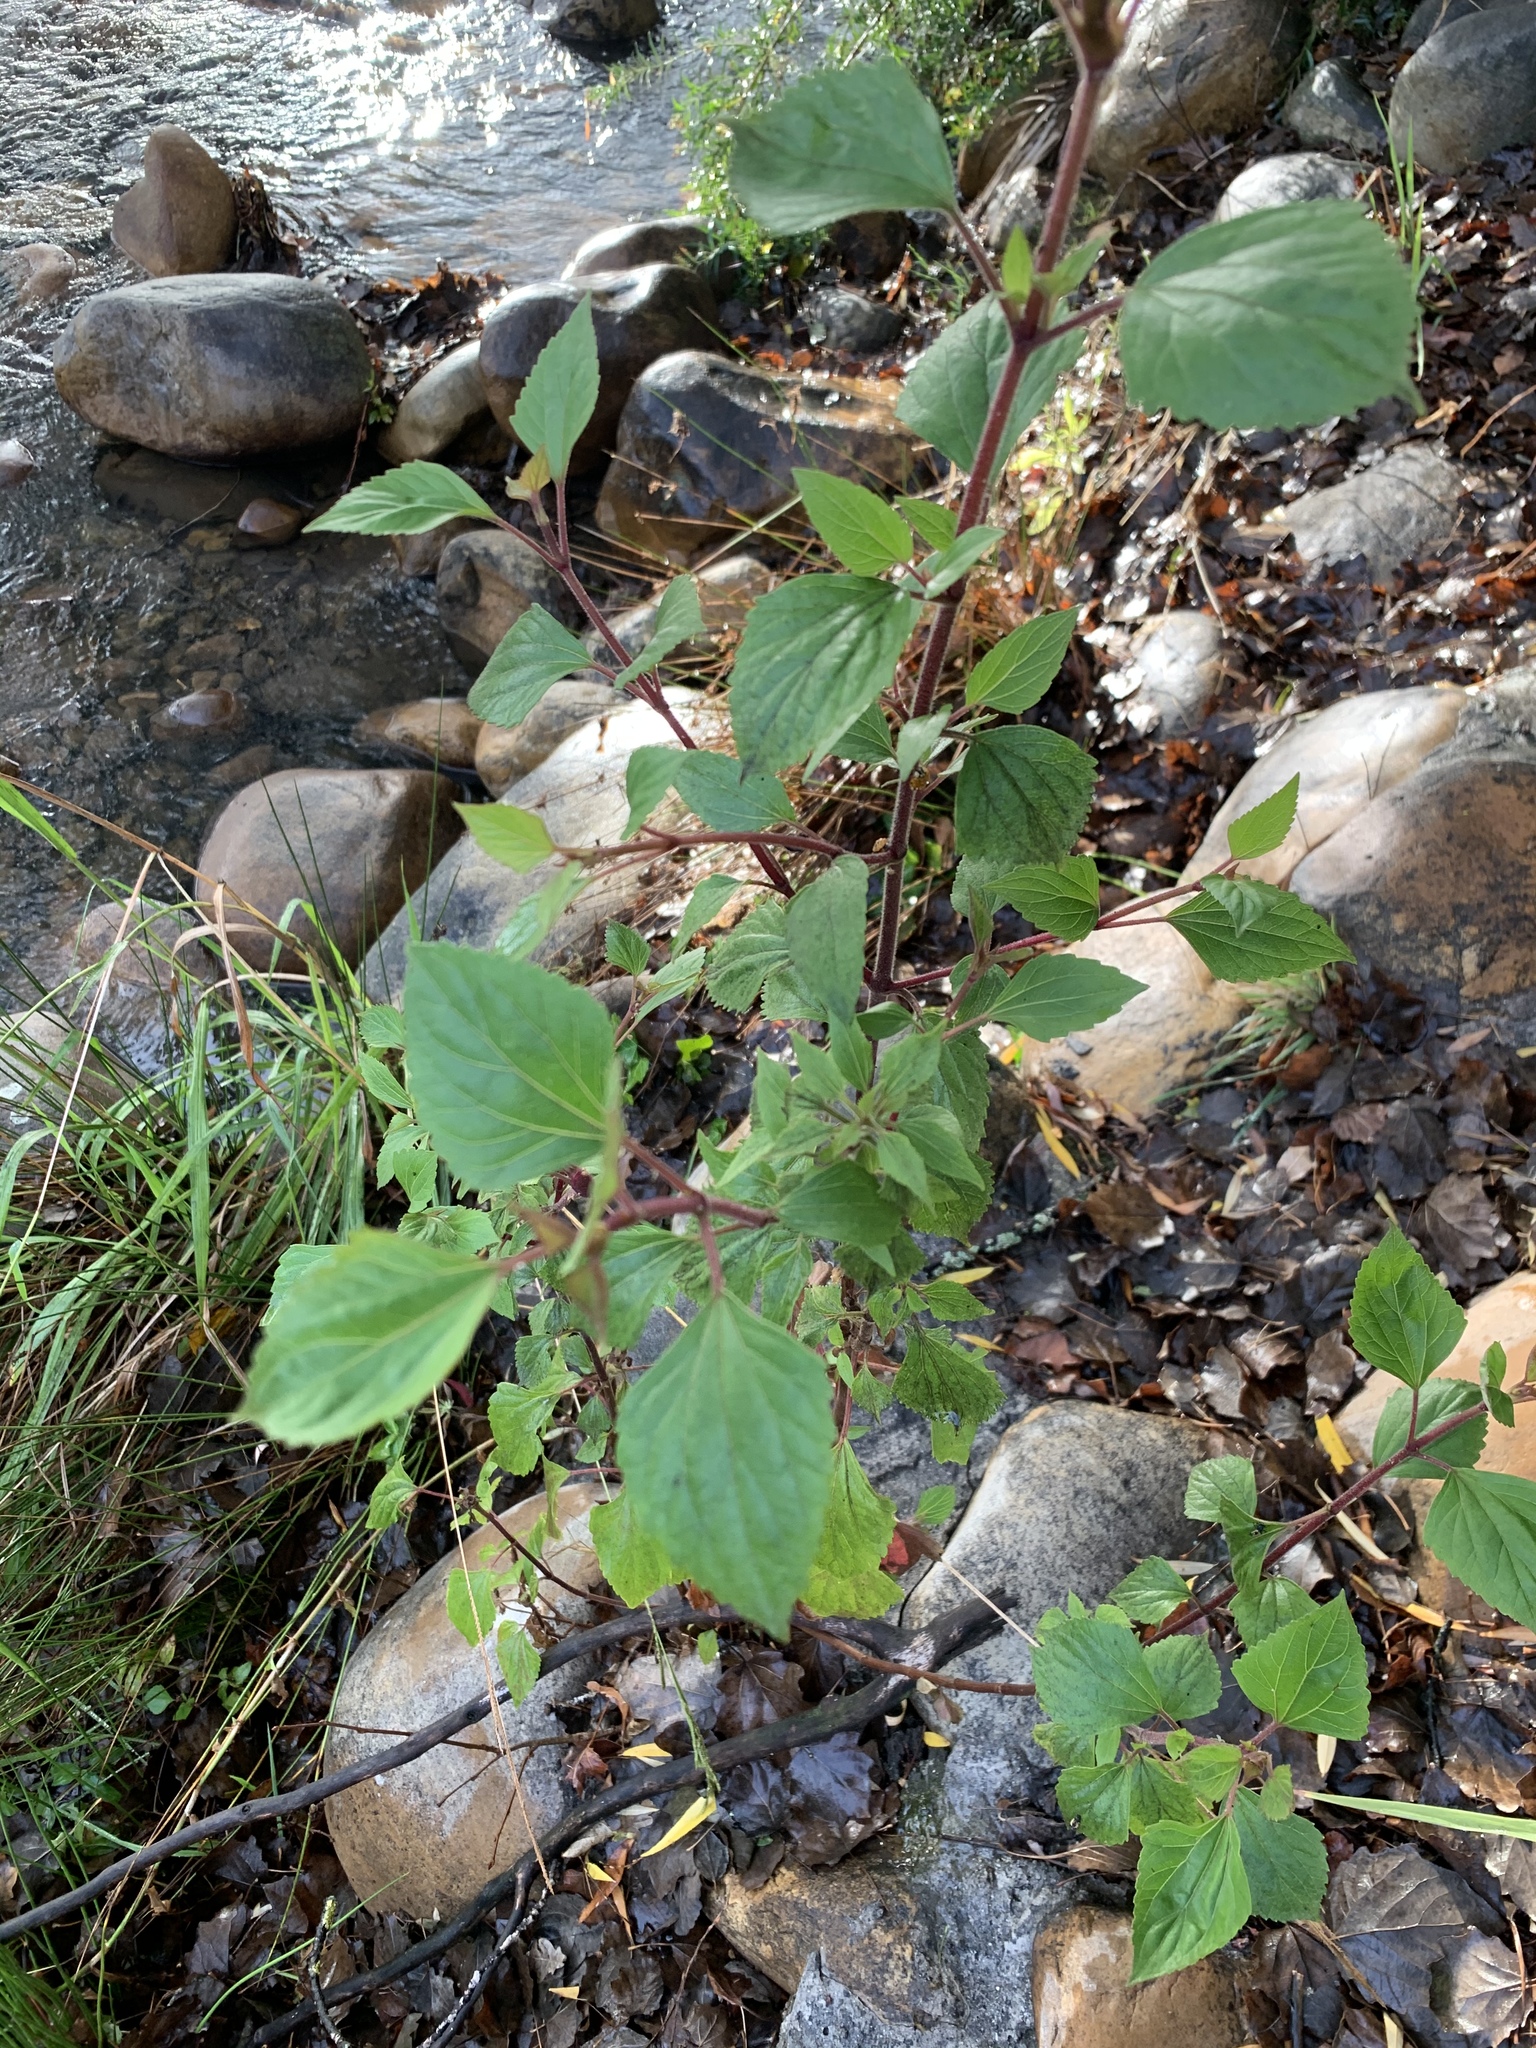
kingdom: Plantae
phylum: Tracheophyta
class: Magnoliopsida
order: Asterales
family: Asteraceae
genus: Ageratina
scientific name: Ageratina adenophora
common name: Sticky snakeroot
